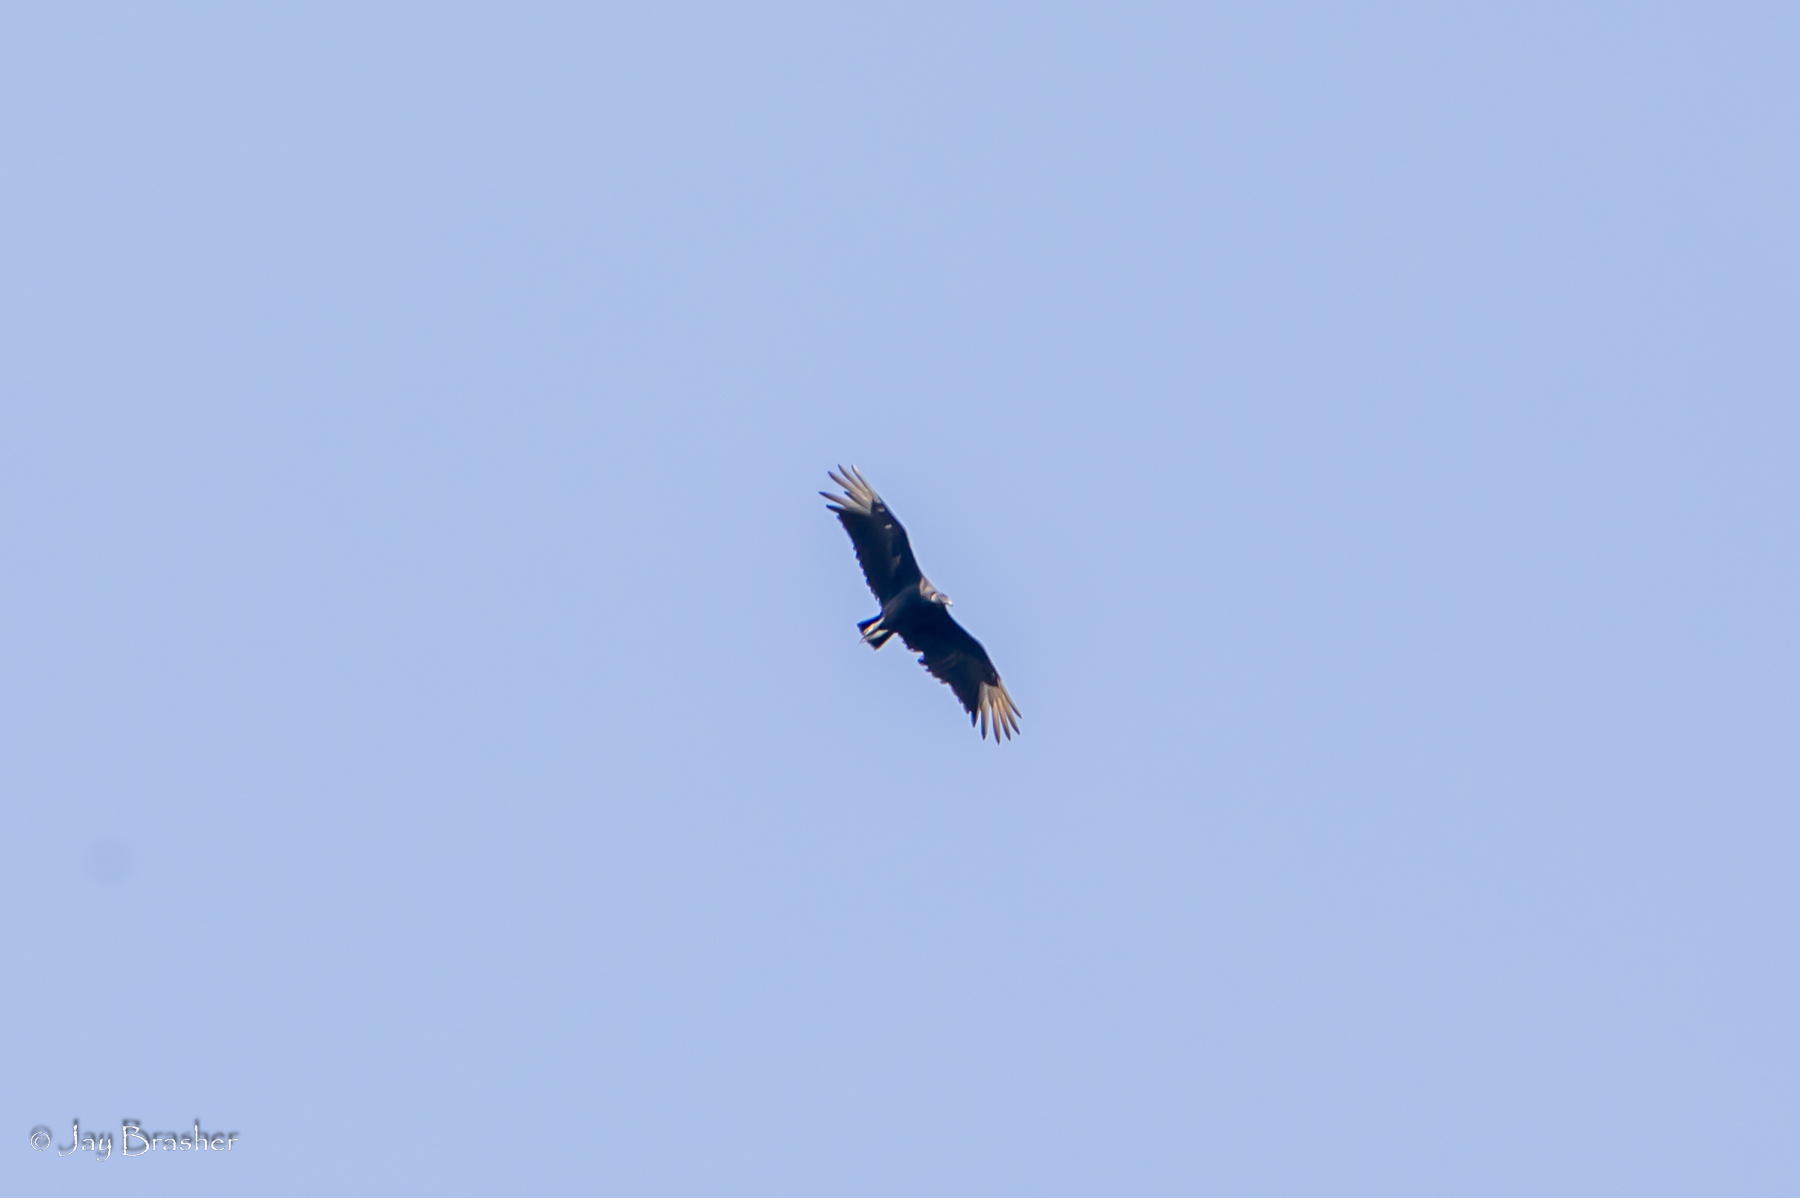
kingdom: Animalia
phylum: Chordata
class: Aves
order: Accipitriformes
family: Cathartidae
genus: Coragyps
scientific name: Coragyps atratus
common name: Black vulture
